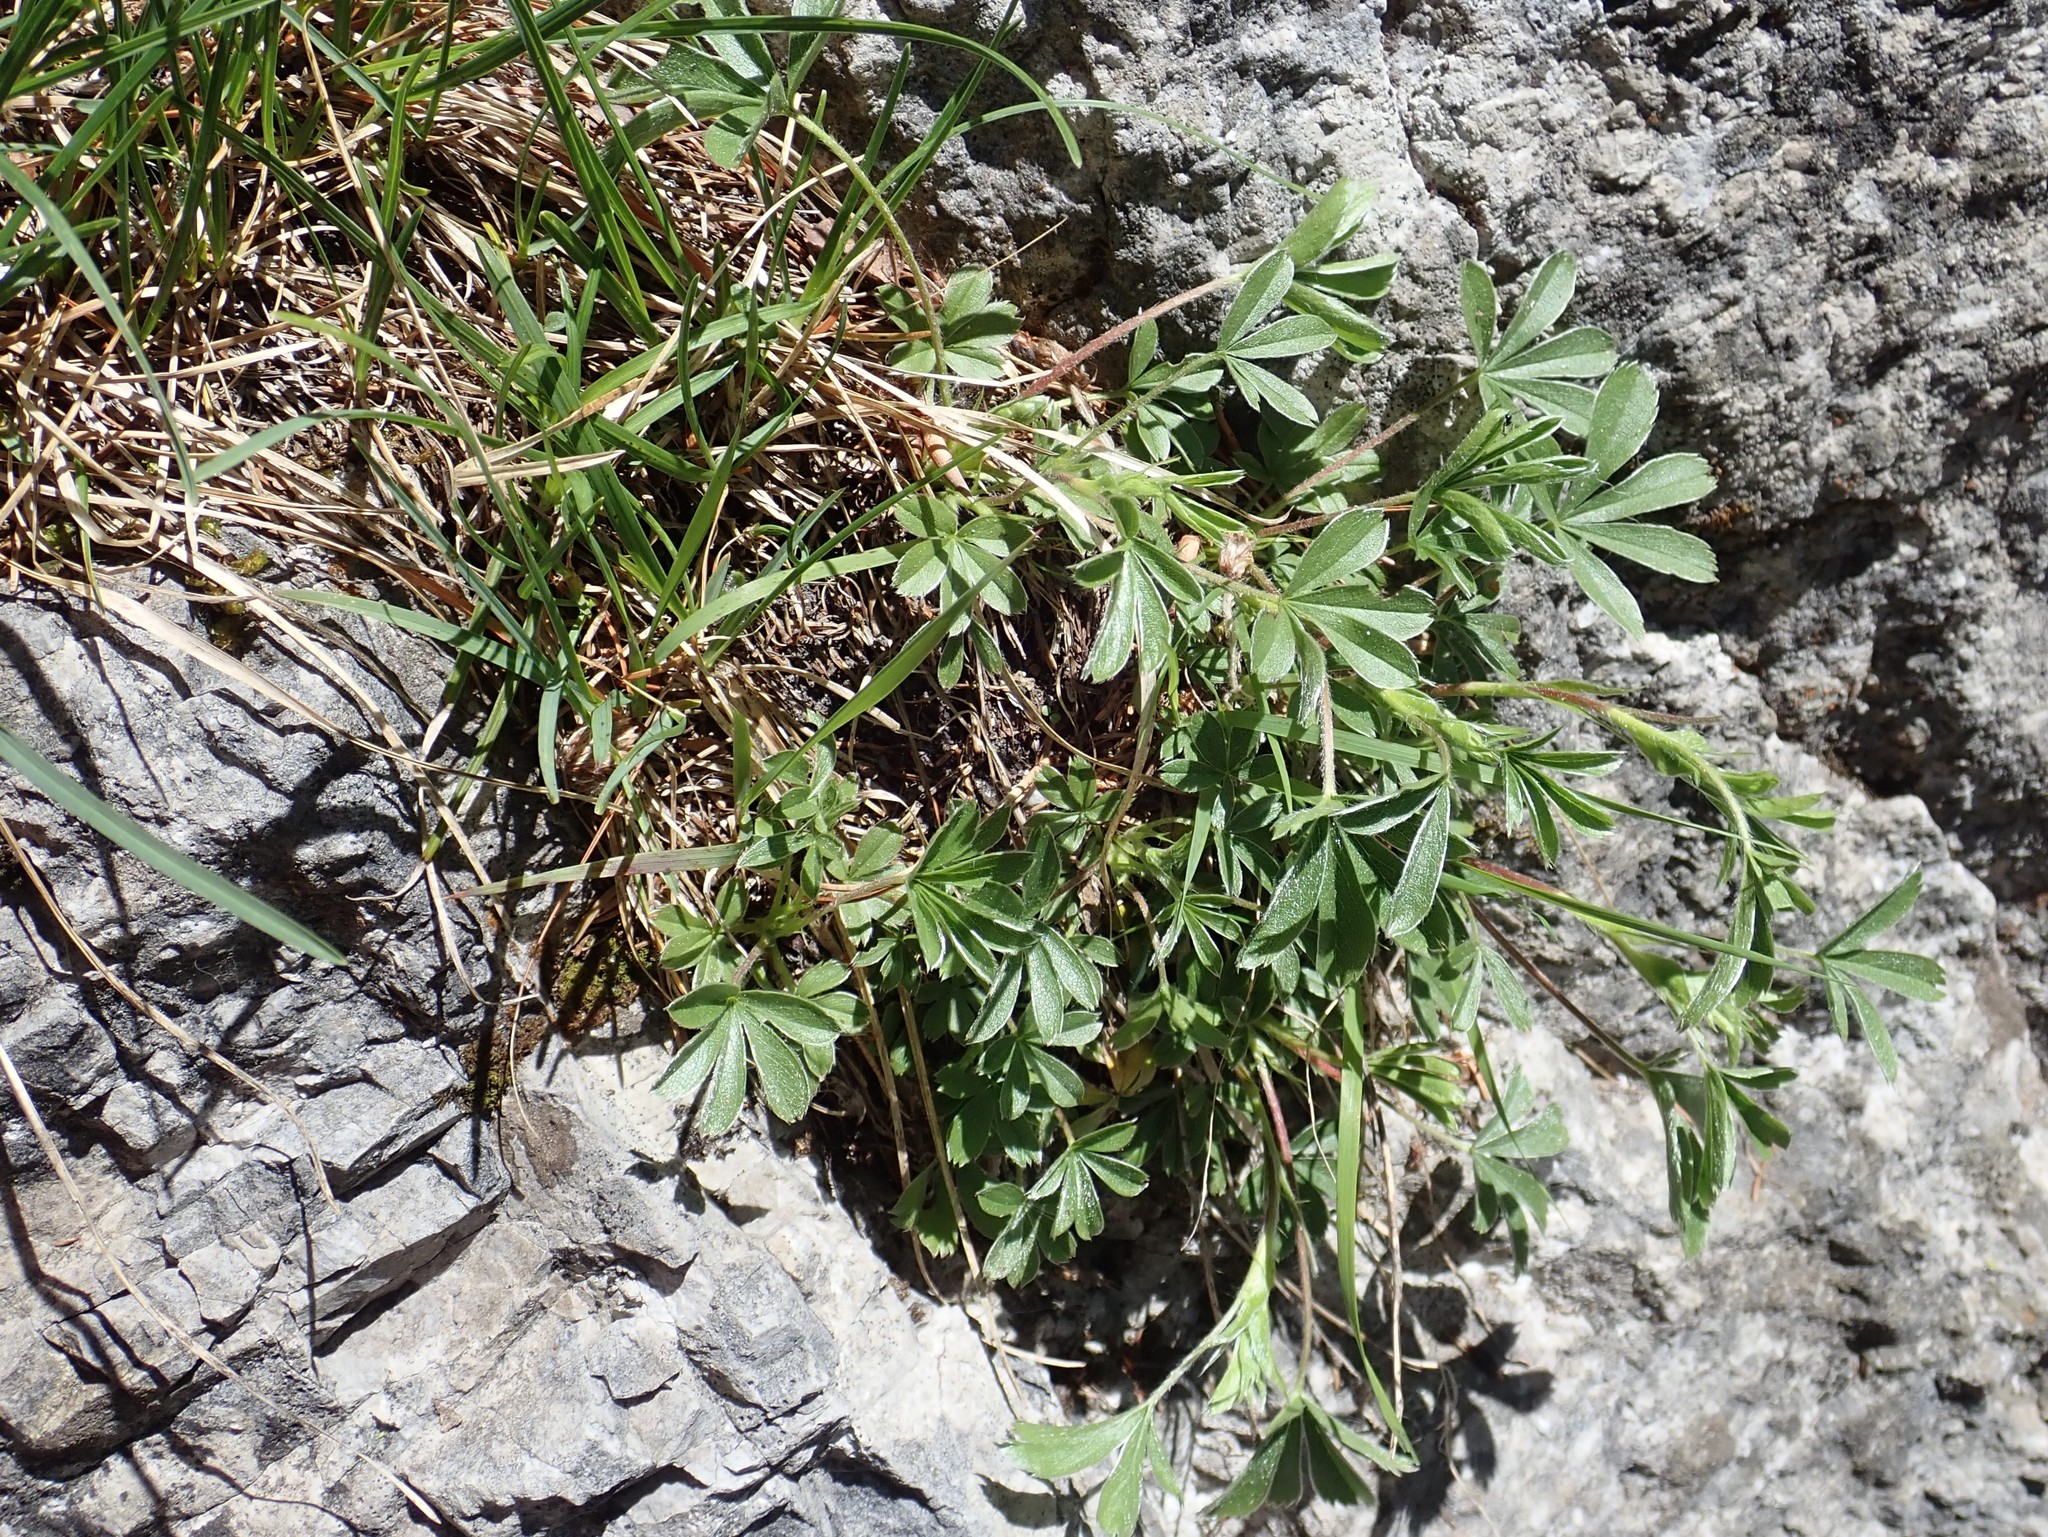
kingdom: Plantae
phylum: Tracheophyta
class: Magnoliopsida
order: Rosales
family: Rosaceae
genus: Potentilla
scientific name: Potentilla caulescens
